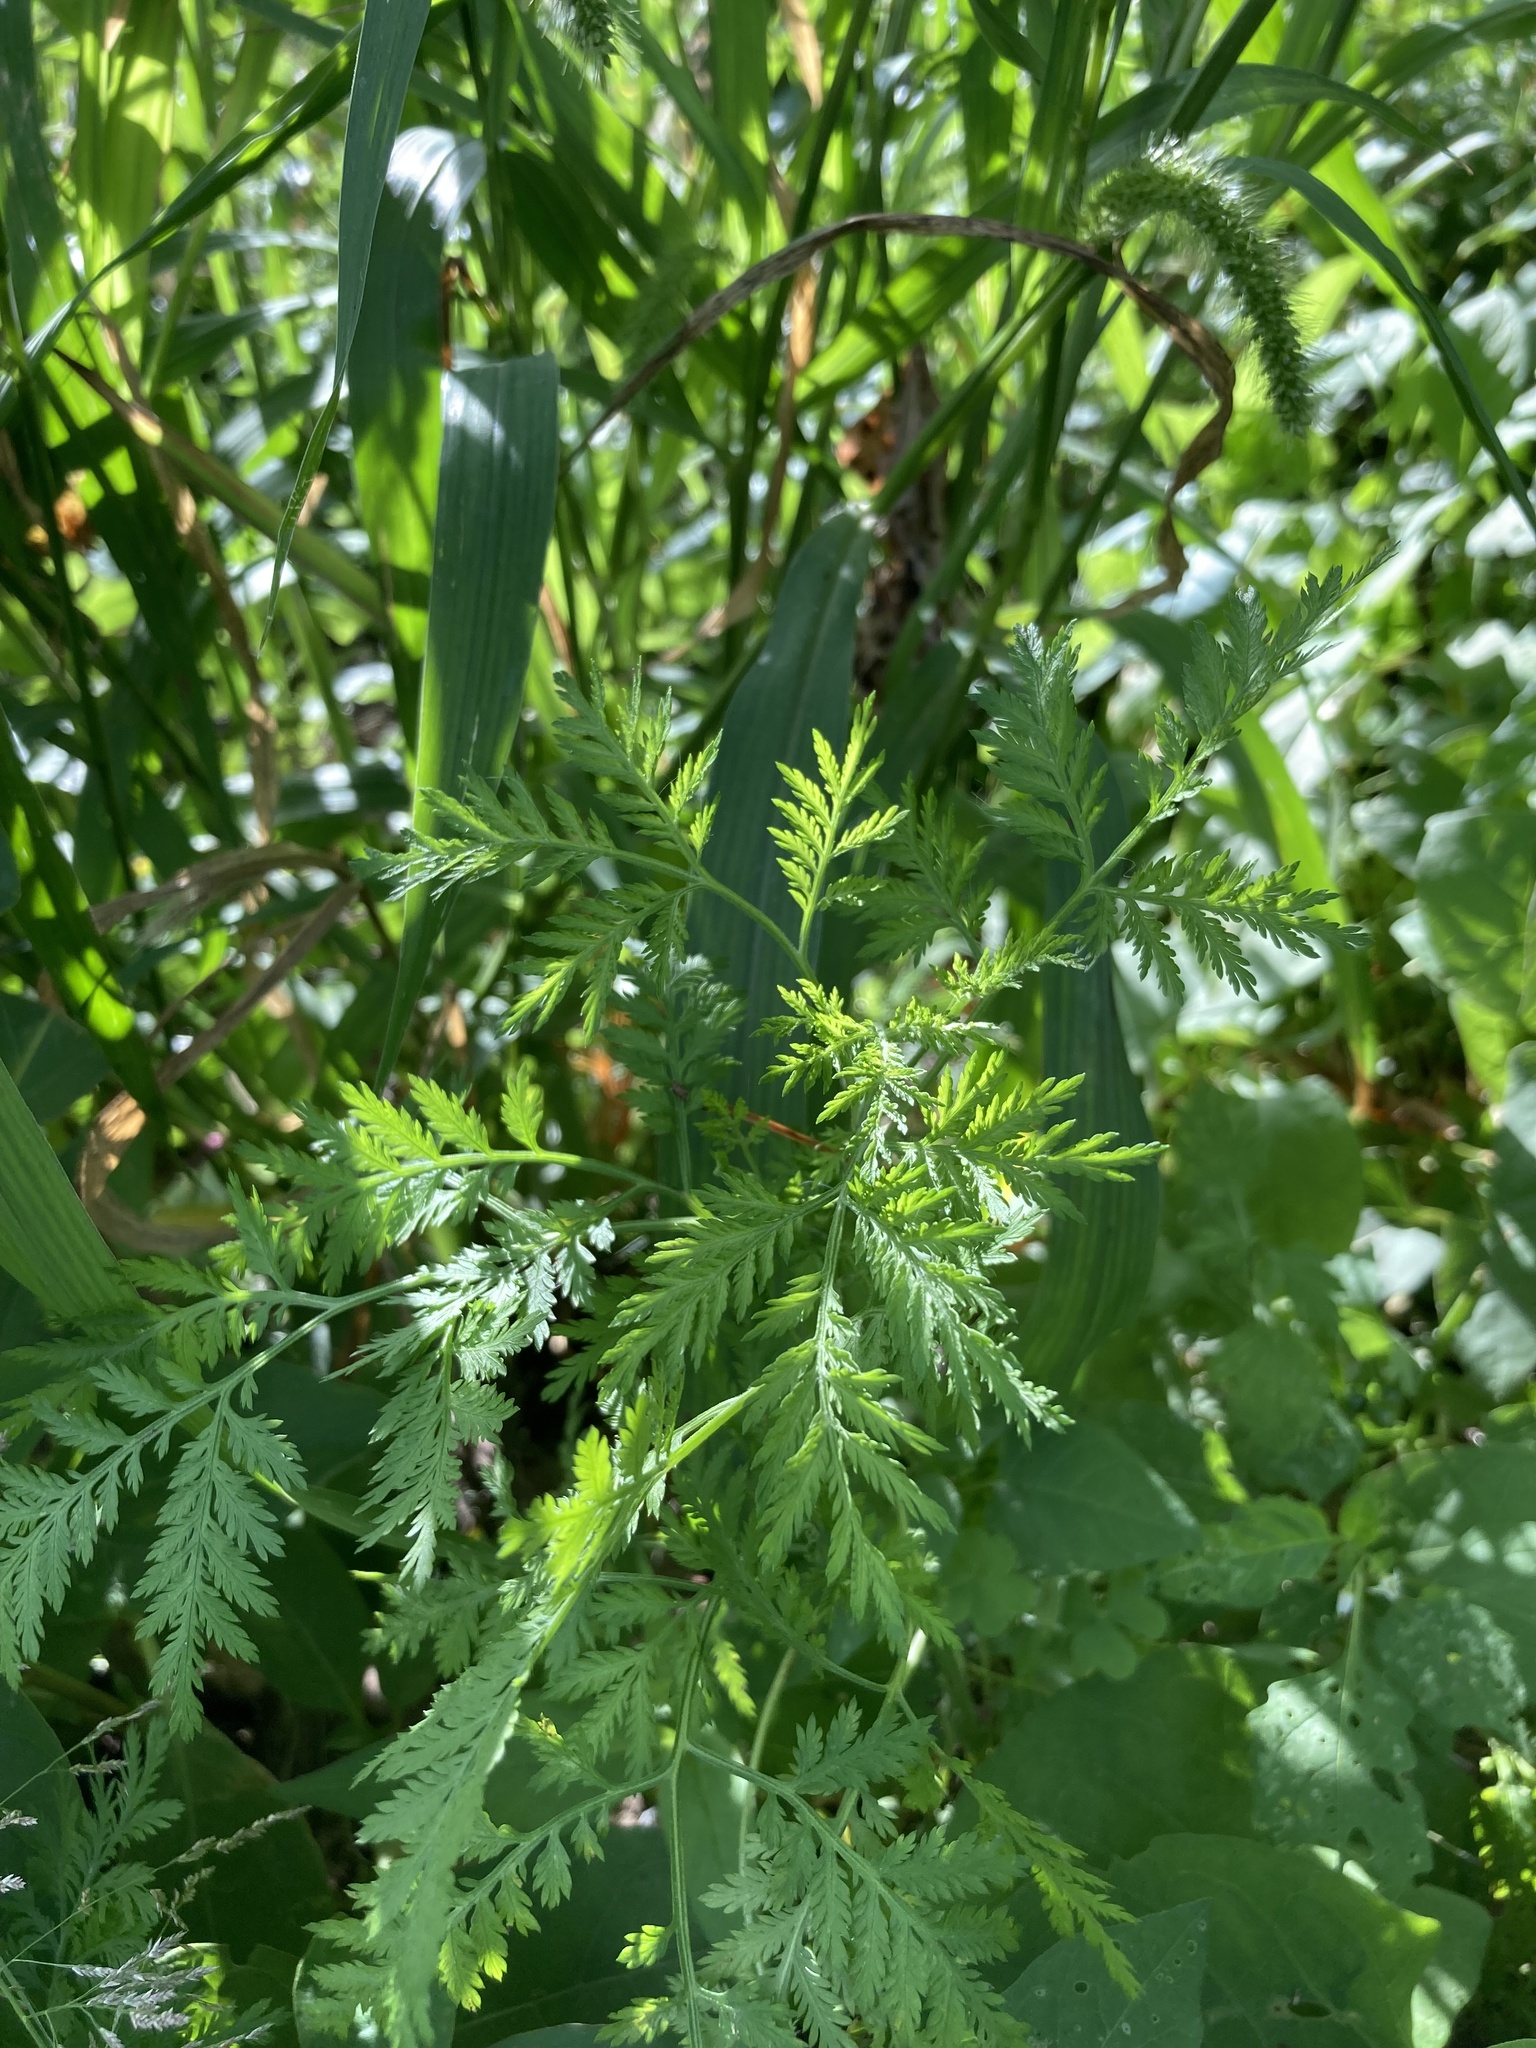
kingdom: Plantae
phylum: Tracheophyta
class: Magnoliopsida
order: Asterales
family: Asteraceae
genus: Artemisia
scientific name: Artemisia annua
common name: Sweet sagewort
